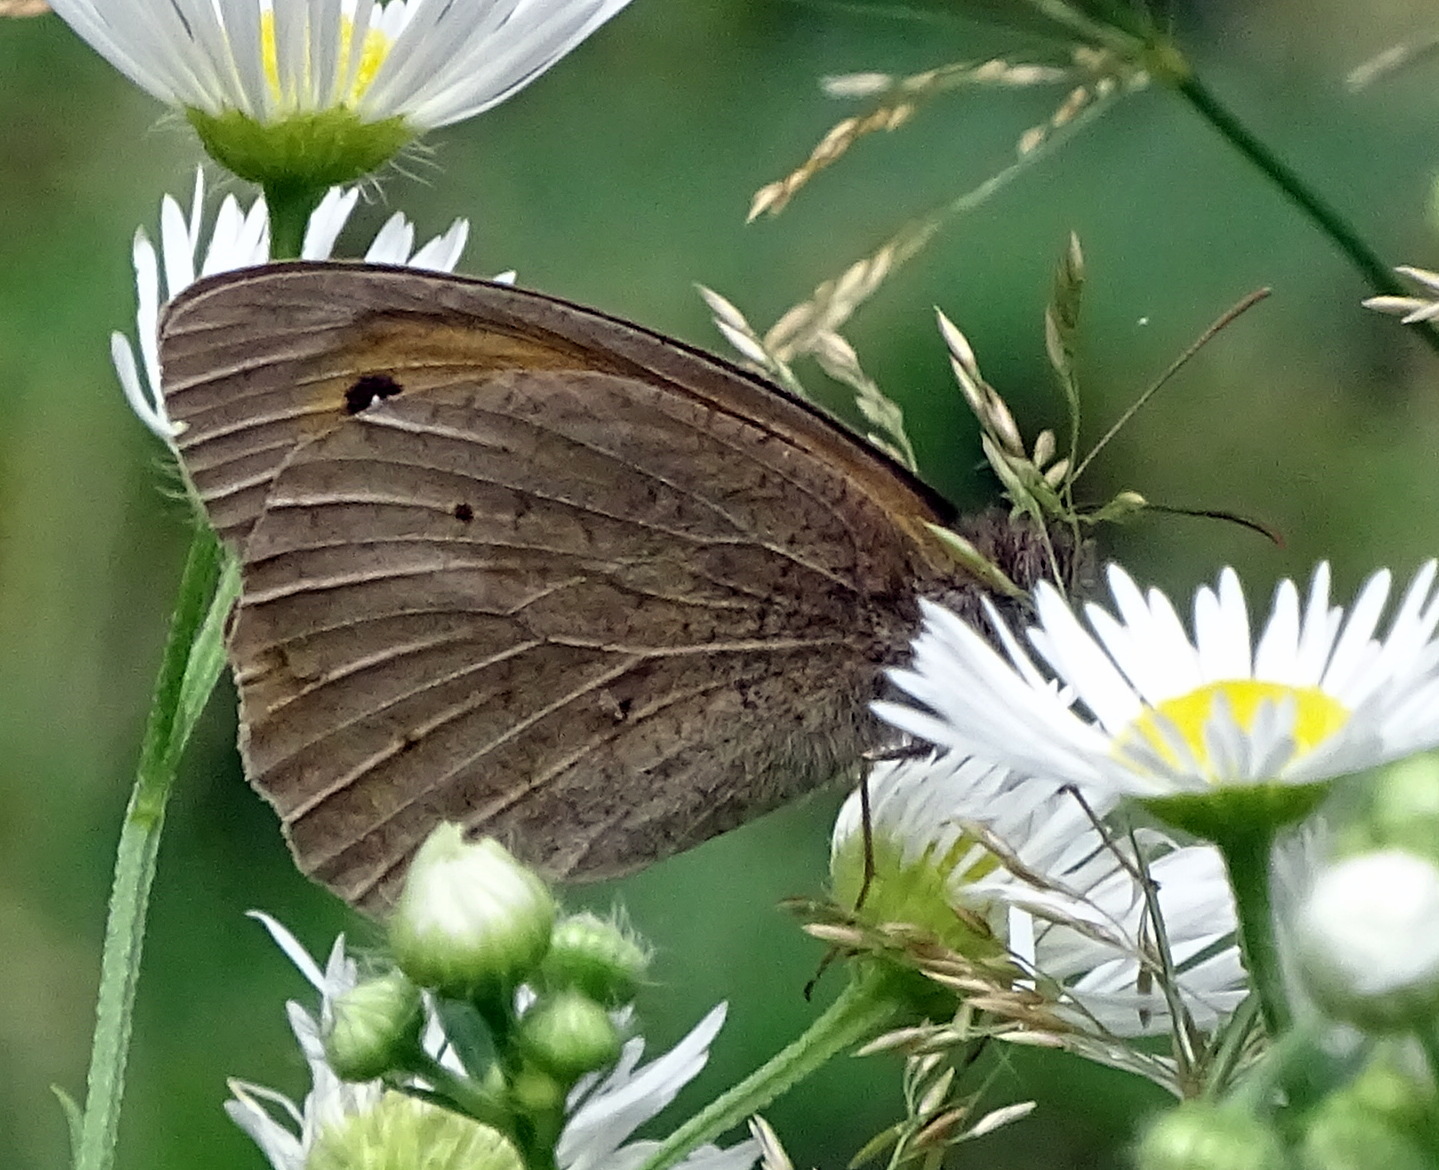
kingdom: Animalia
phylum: Arthropoda
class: Insecta
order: Lepidoptera
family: Nymphalidae
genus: Maniola
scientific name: Maniola jurtina
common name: Meadow brown
